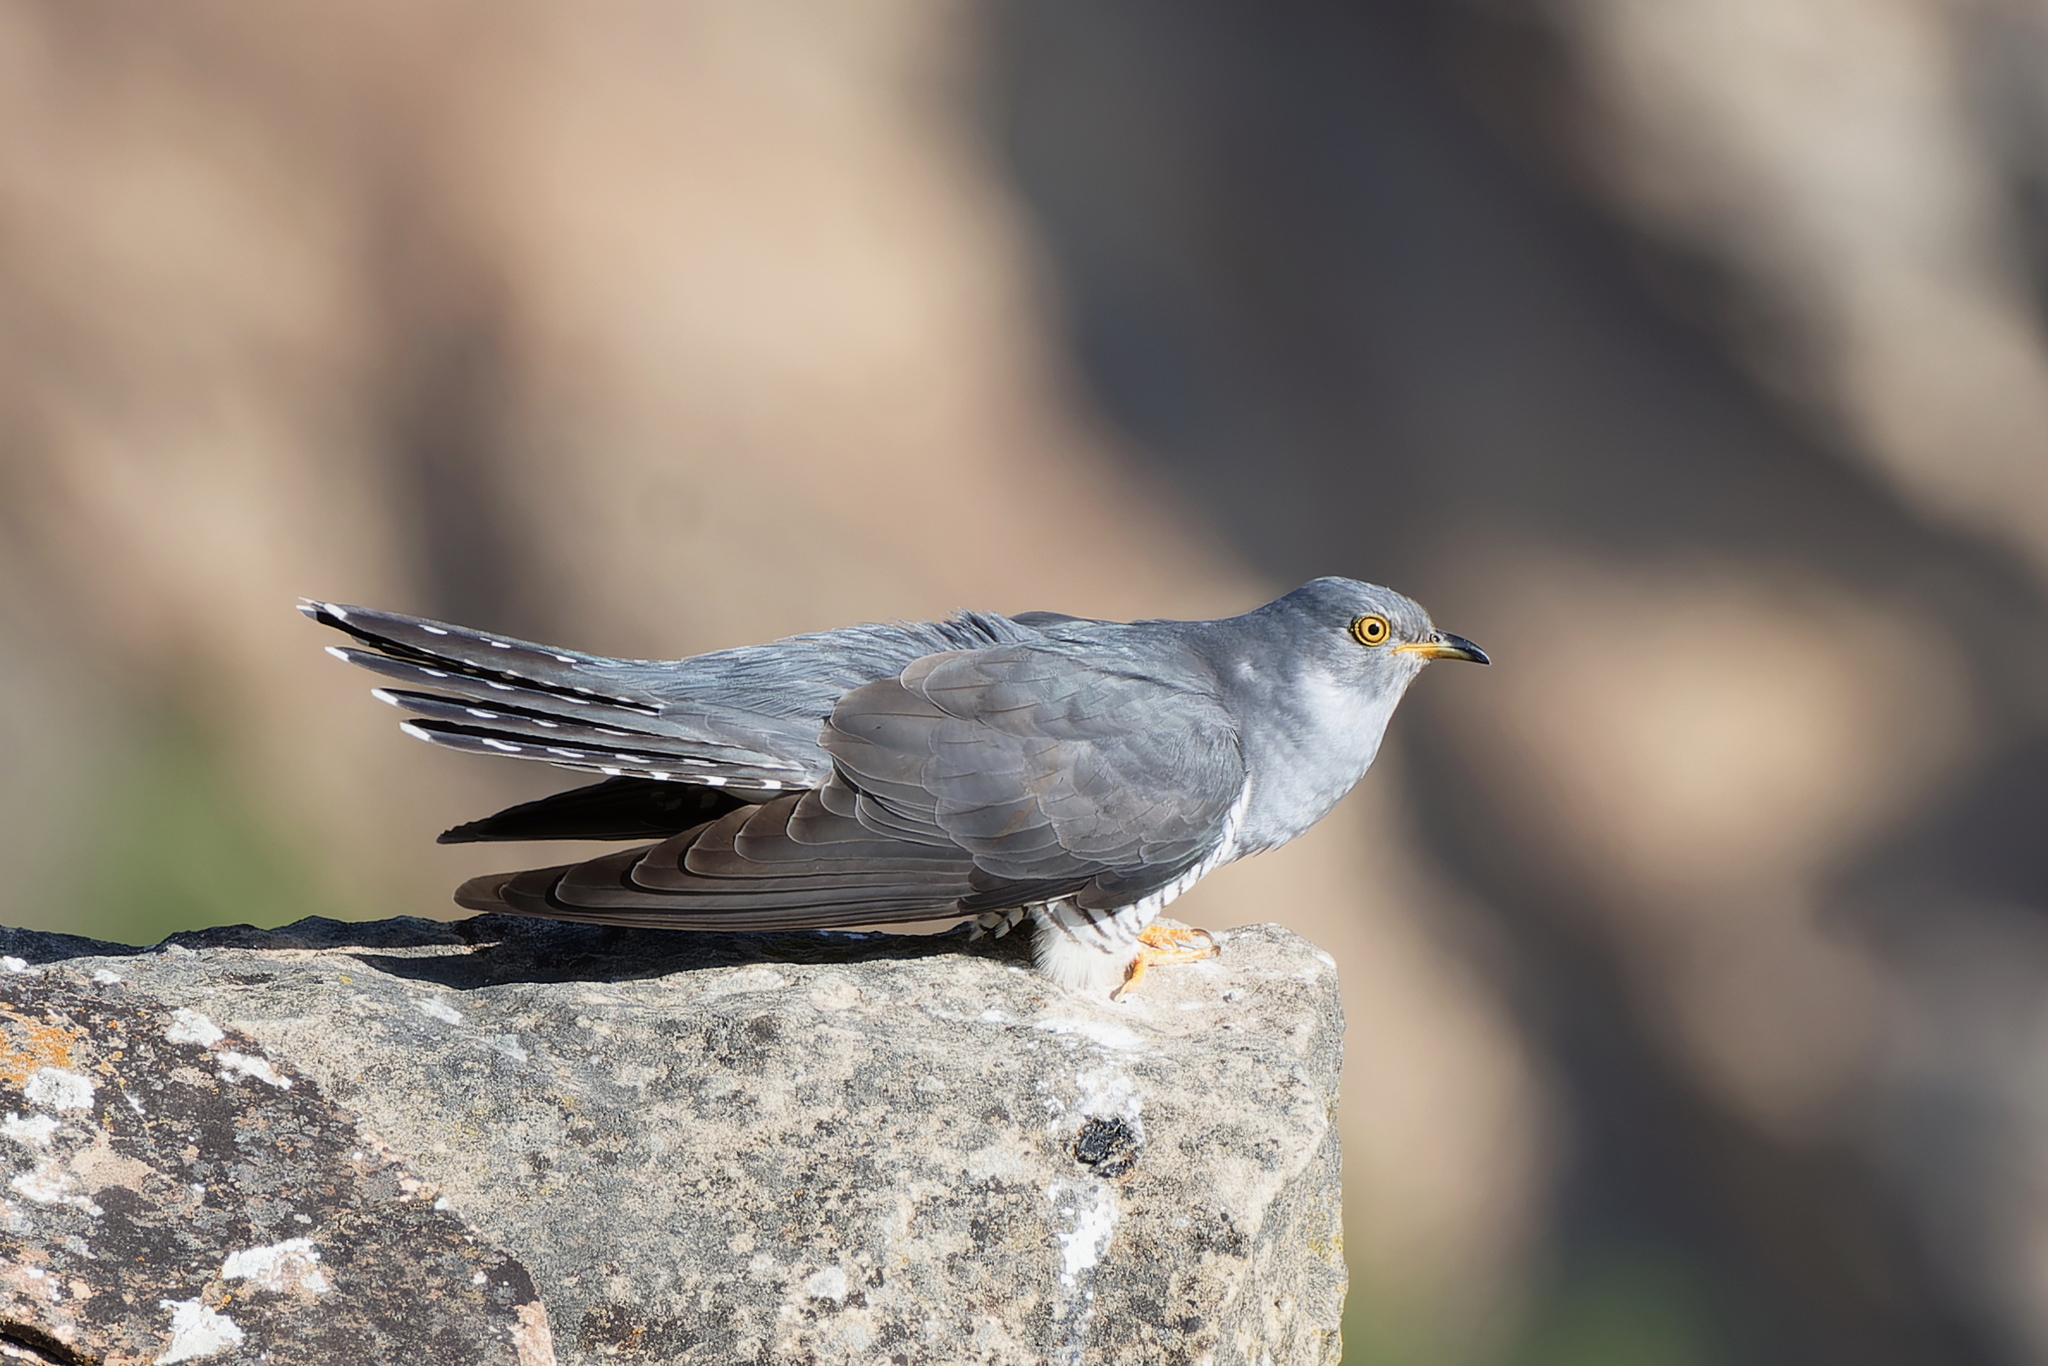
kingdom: Animalia
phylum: Chordata
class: Aves
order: Cuculiformes
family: Cuculidae
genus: Cuculus
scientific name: Cuculus canorus
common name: Common cuckoo
